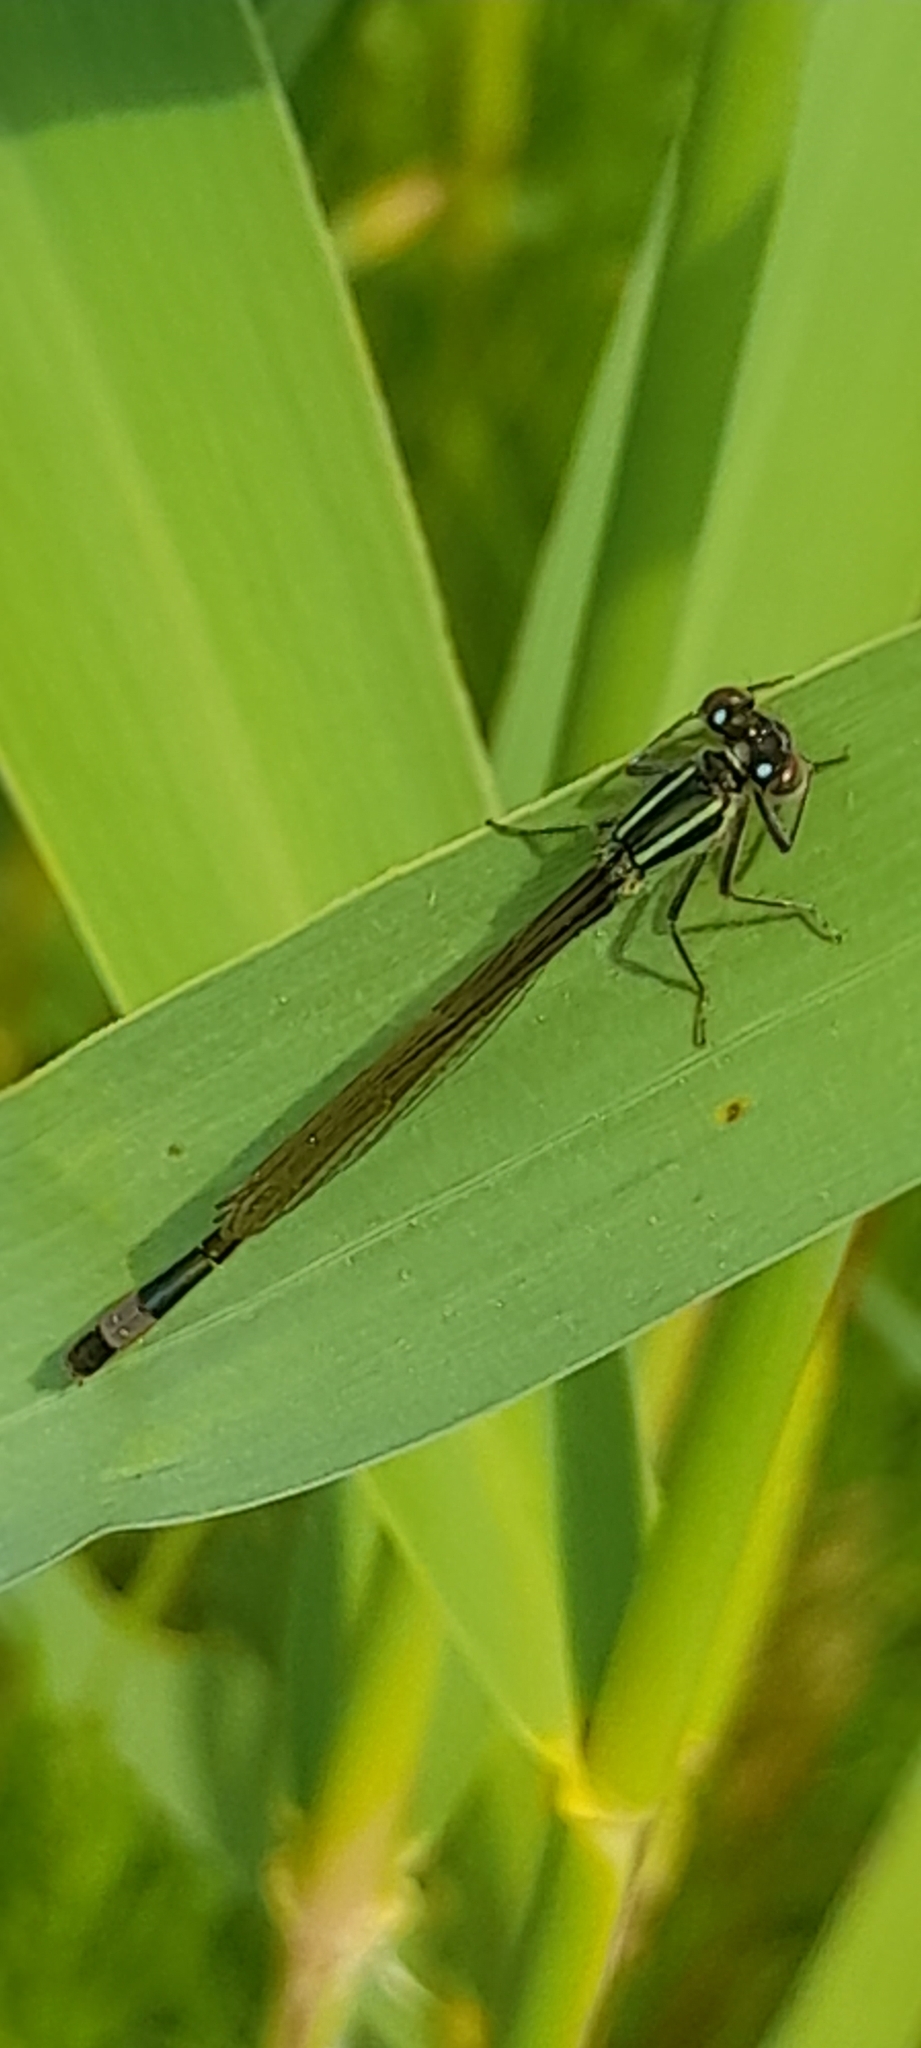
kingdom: Animalia
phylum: Arthropoda
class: Insecta
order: Odonata
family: Coenagrionidae
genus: Ischnura
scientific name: Ischnura elegans
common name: Blue-tailed damselfly
